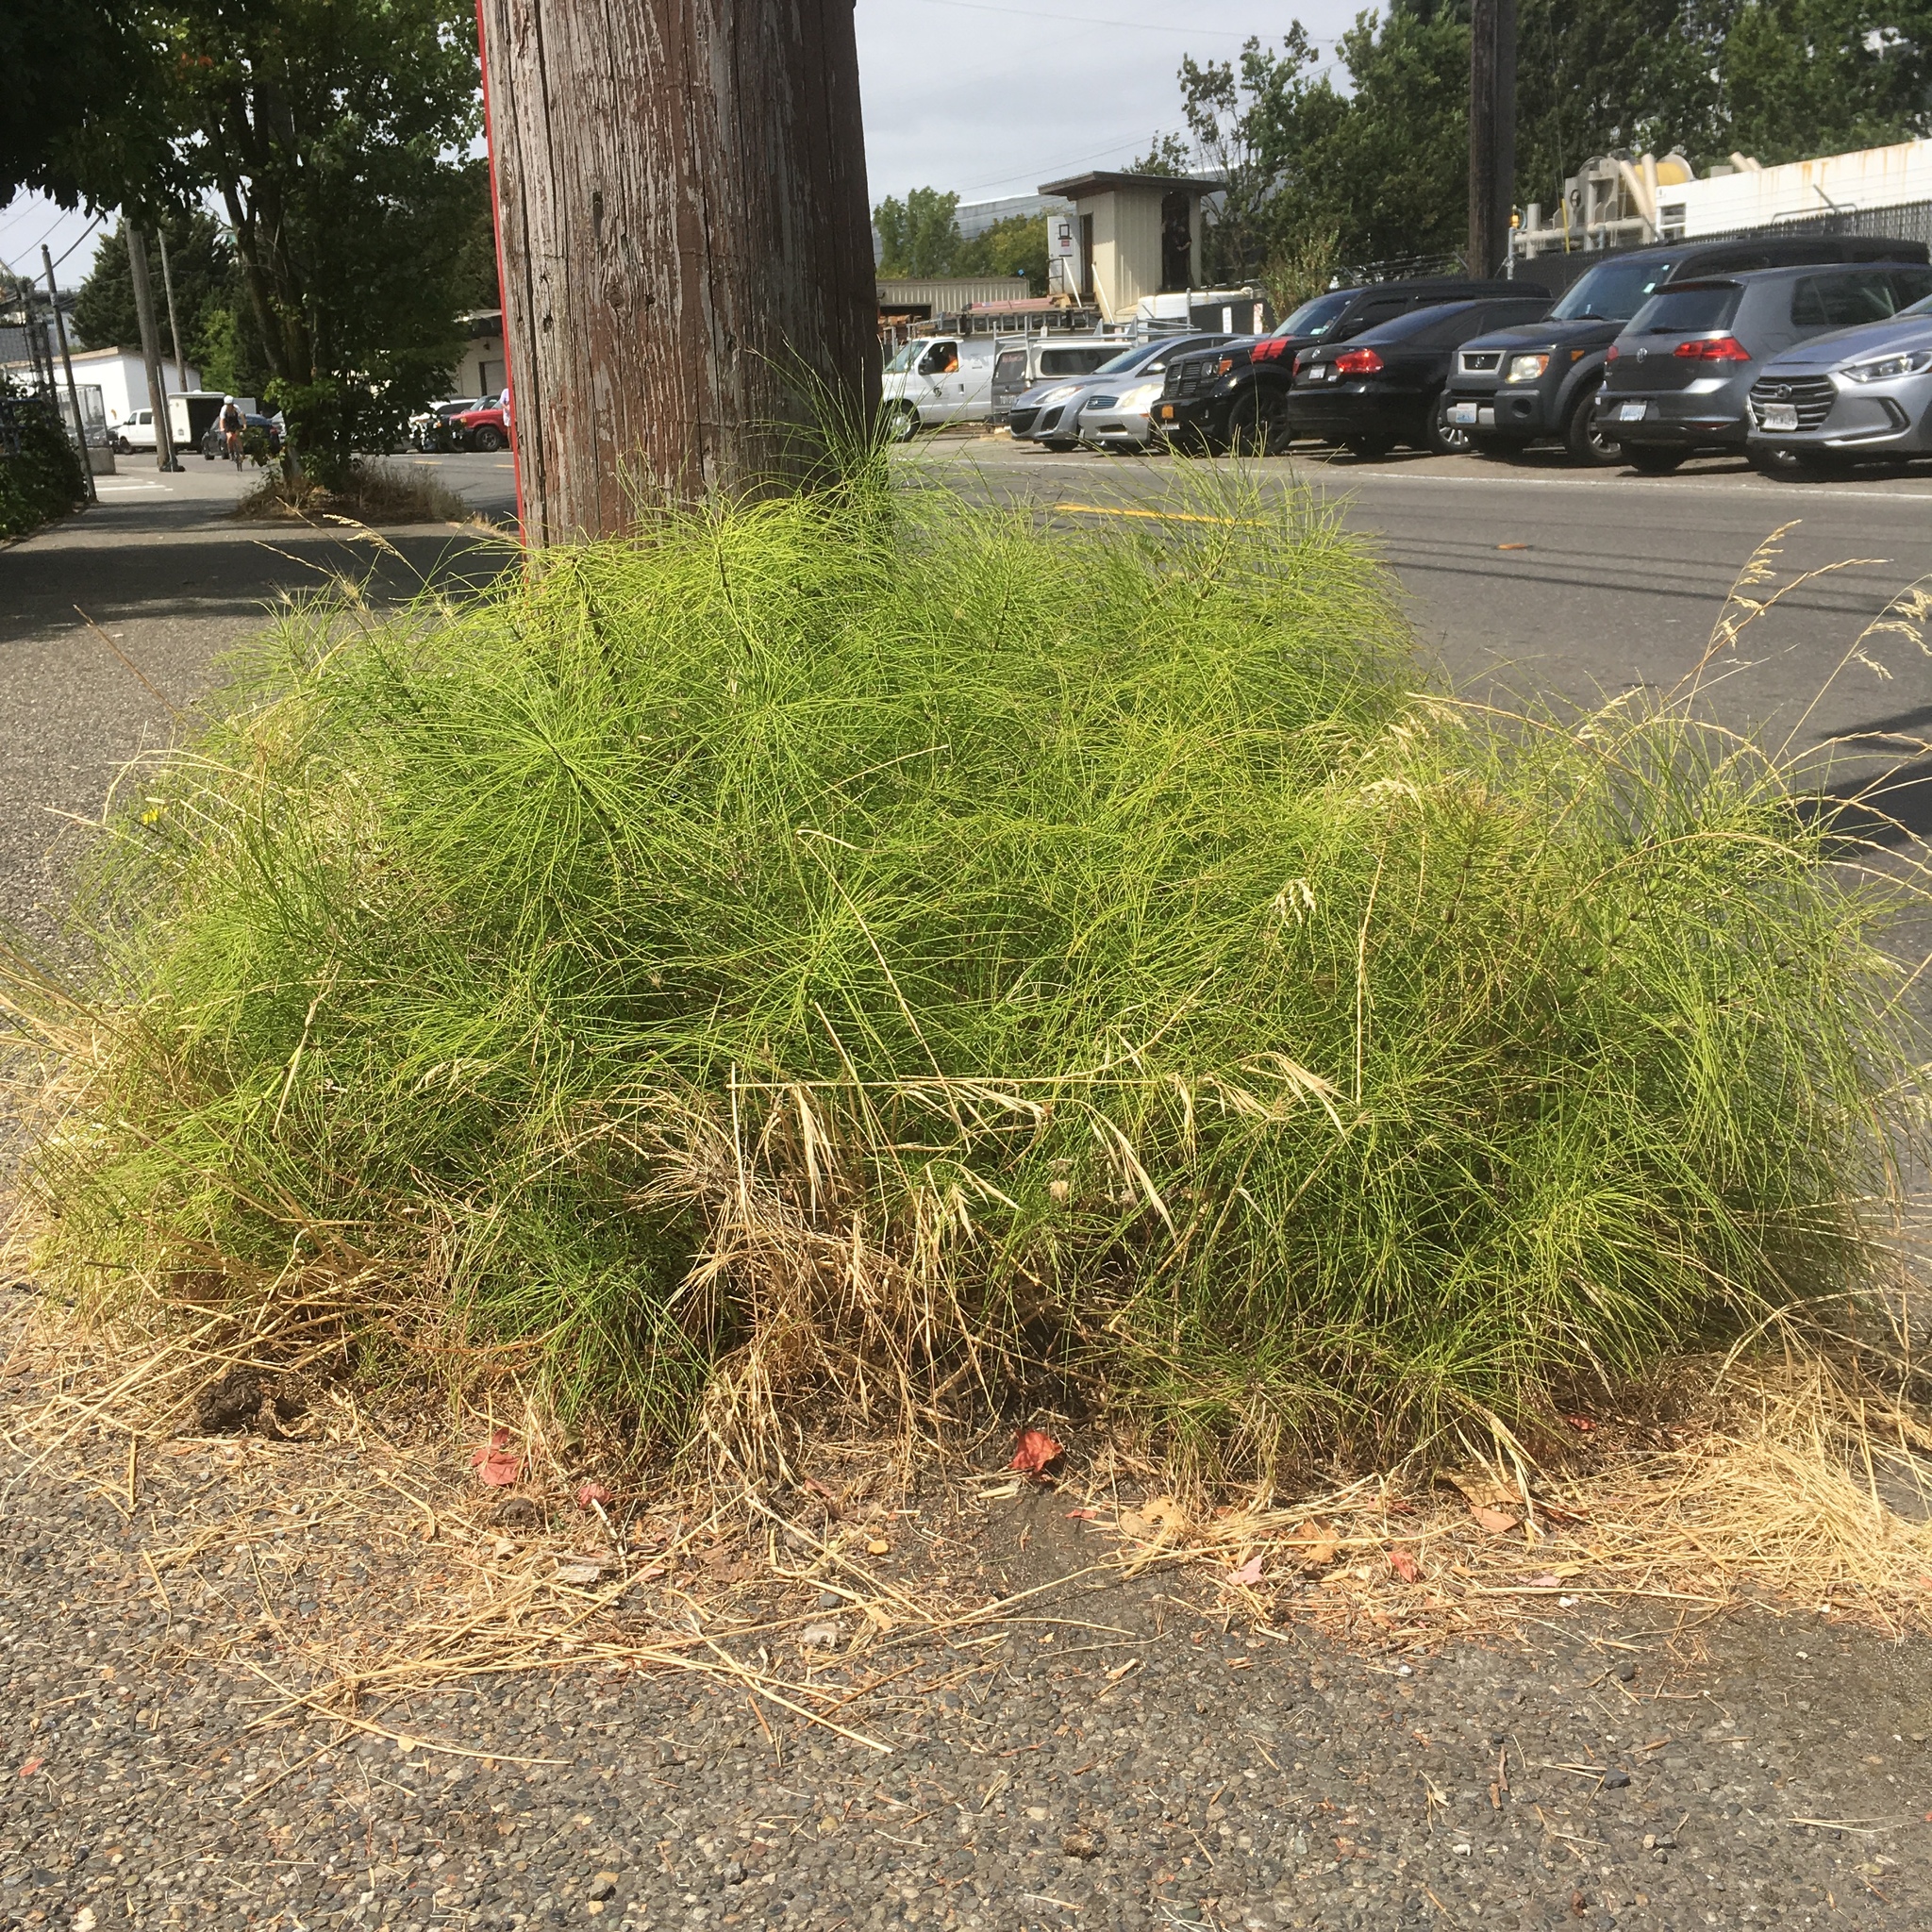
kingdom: Plantae
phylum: Tracheophyta
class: Polypodiopsida
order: Equisetales
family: Equisetaceae
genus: Equisetum
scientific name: Equisetum braunii
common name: Braun's horsetail
